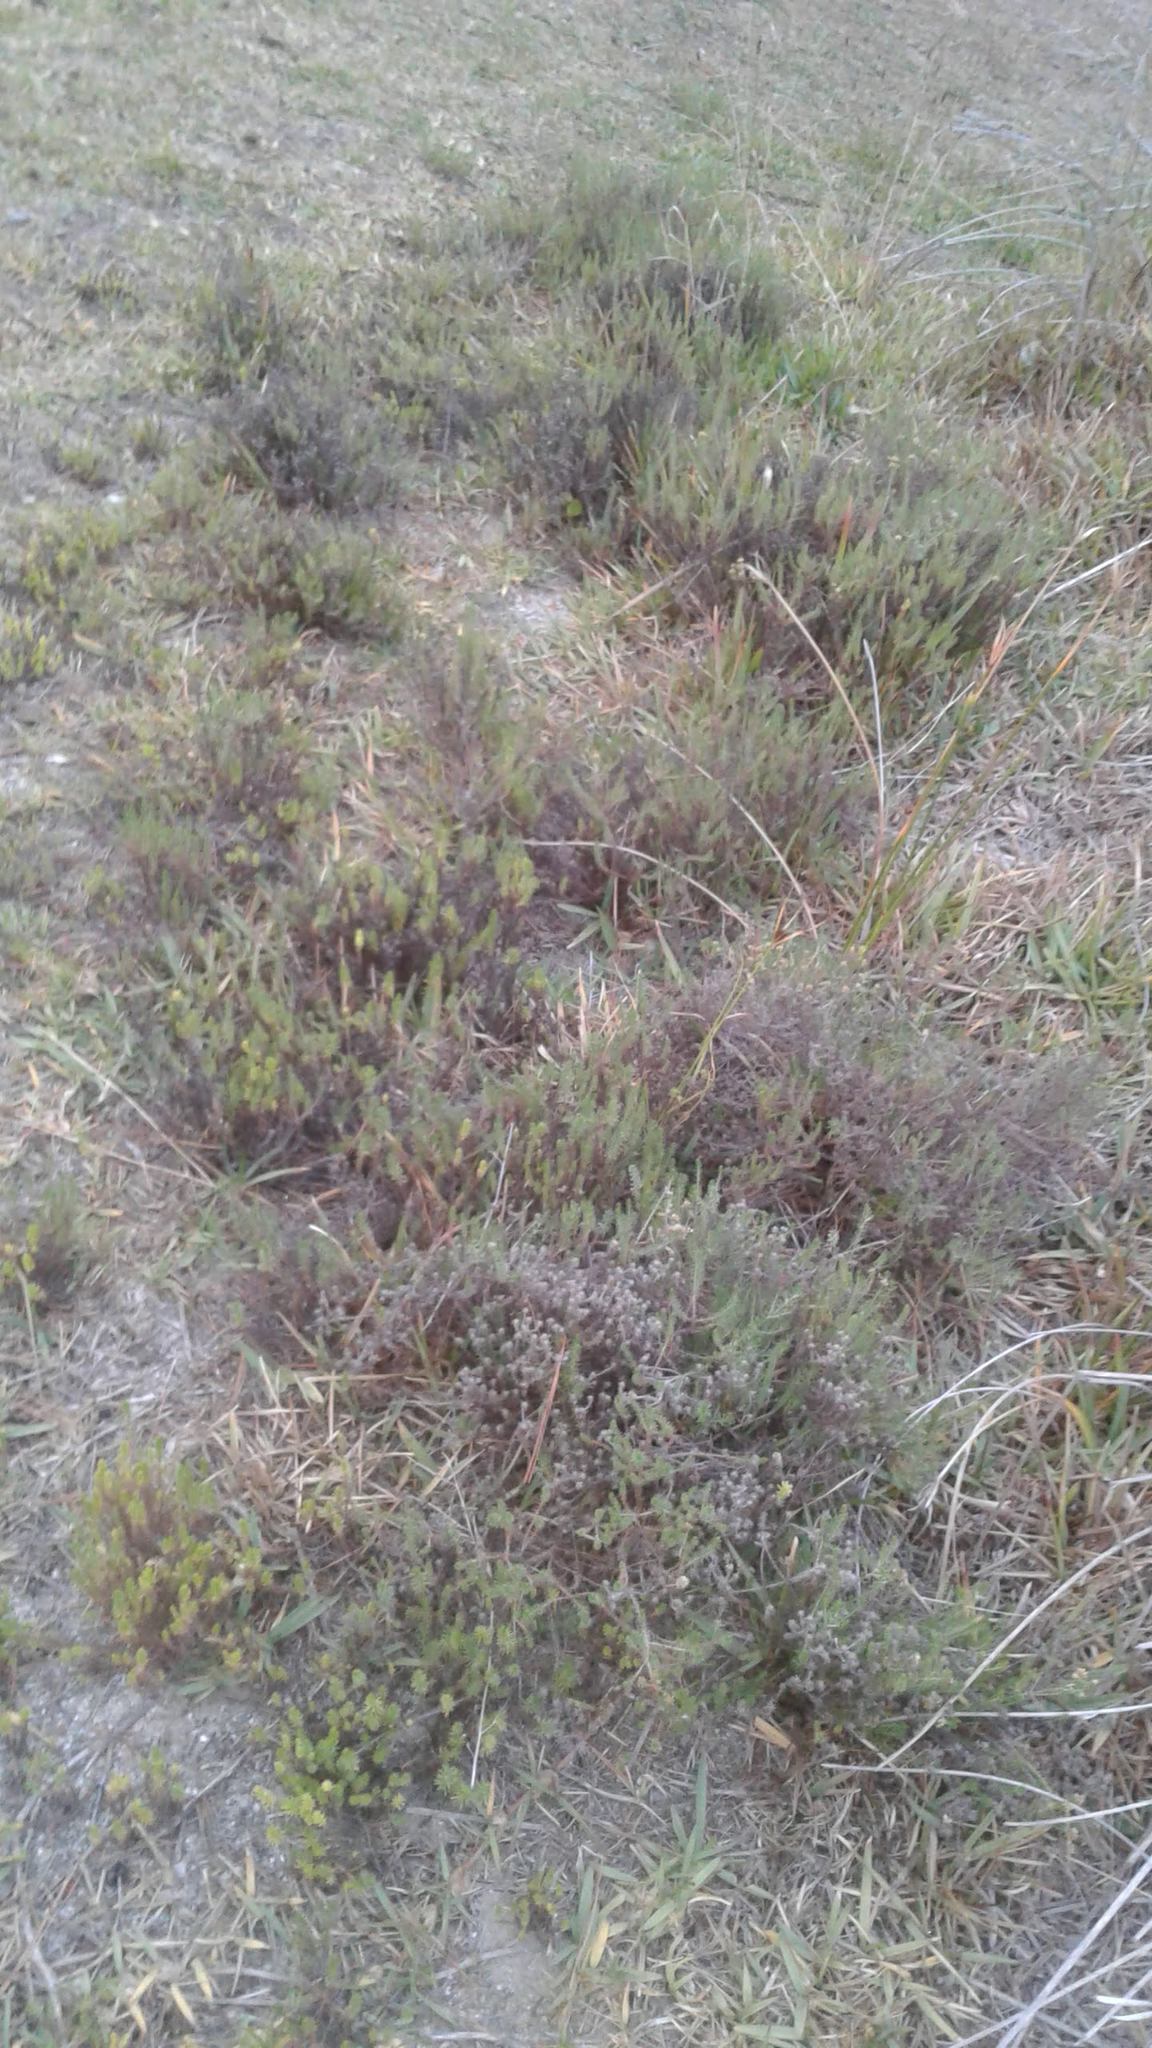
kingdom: Plantae
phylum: Tracheophyta
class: Magnoliopsida
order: Asterales
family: Asteraceae
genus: Helichrysum
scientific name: Helichrysum niveum
